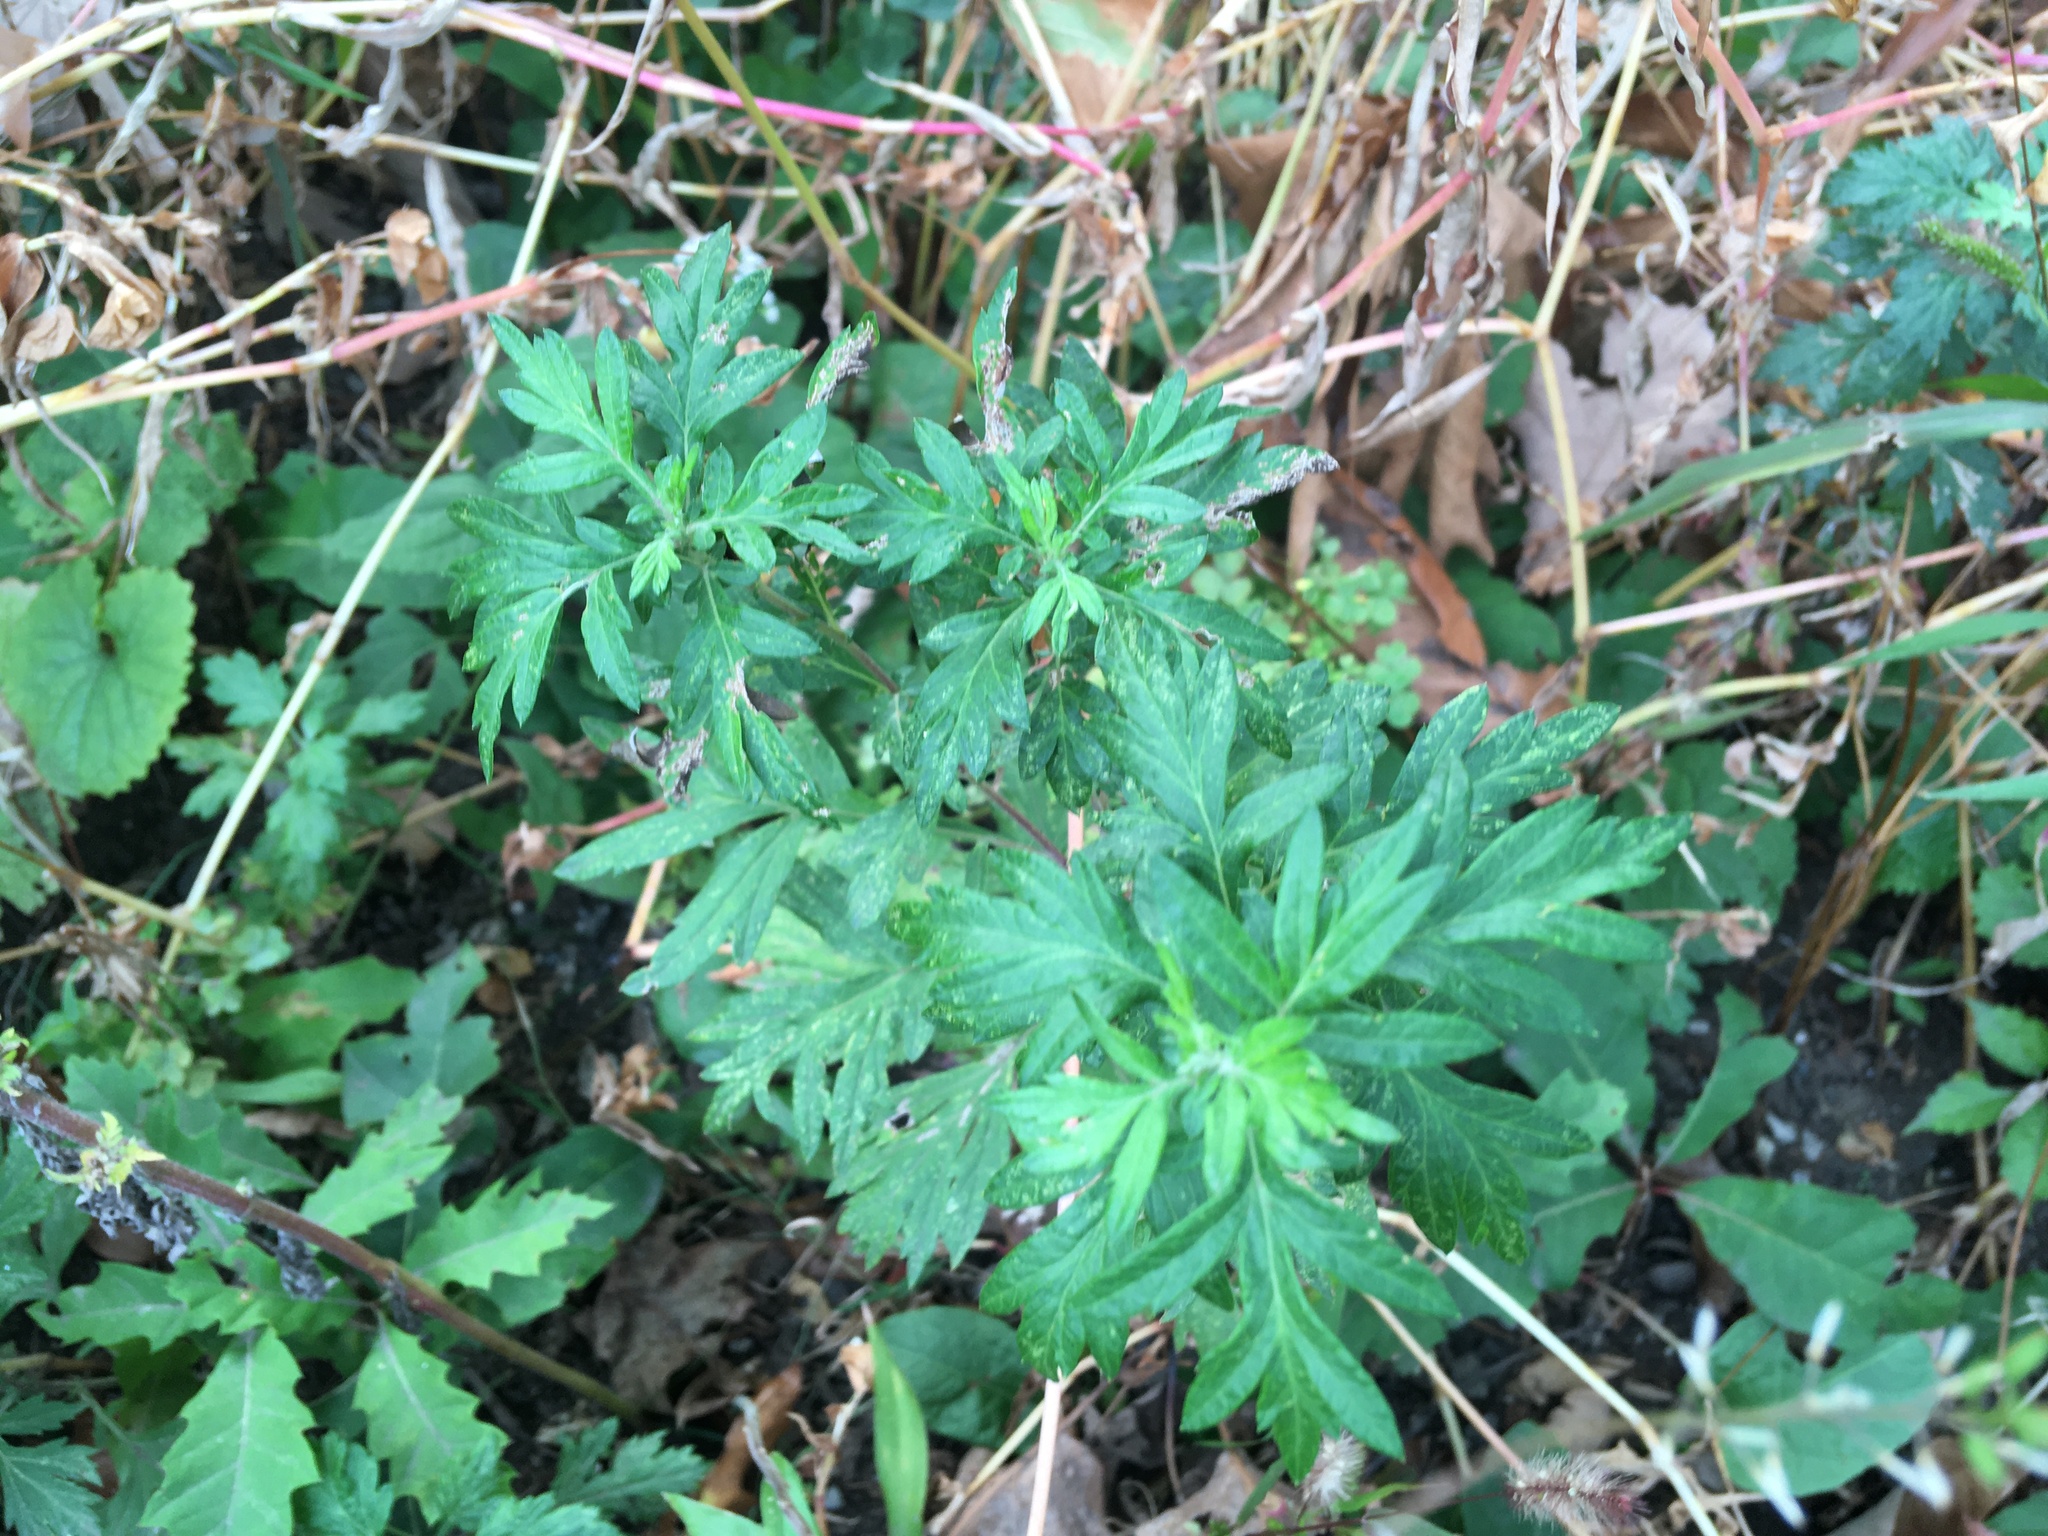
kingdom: Plantae
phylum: Tracheophyta
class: Magnoliopsida
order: Asterales
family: Asteraceae
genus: Artemisia
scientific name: Artemisia vulgaris
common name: Mugwort
